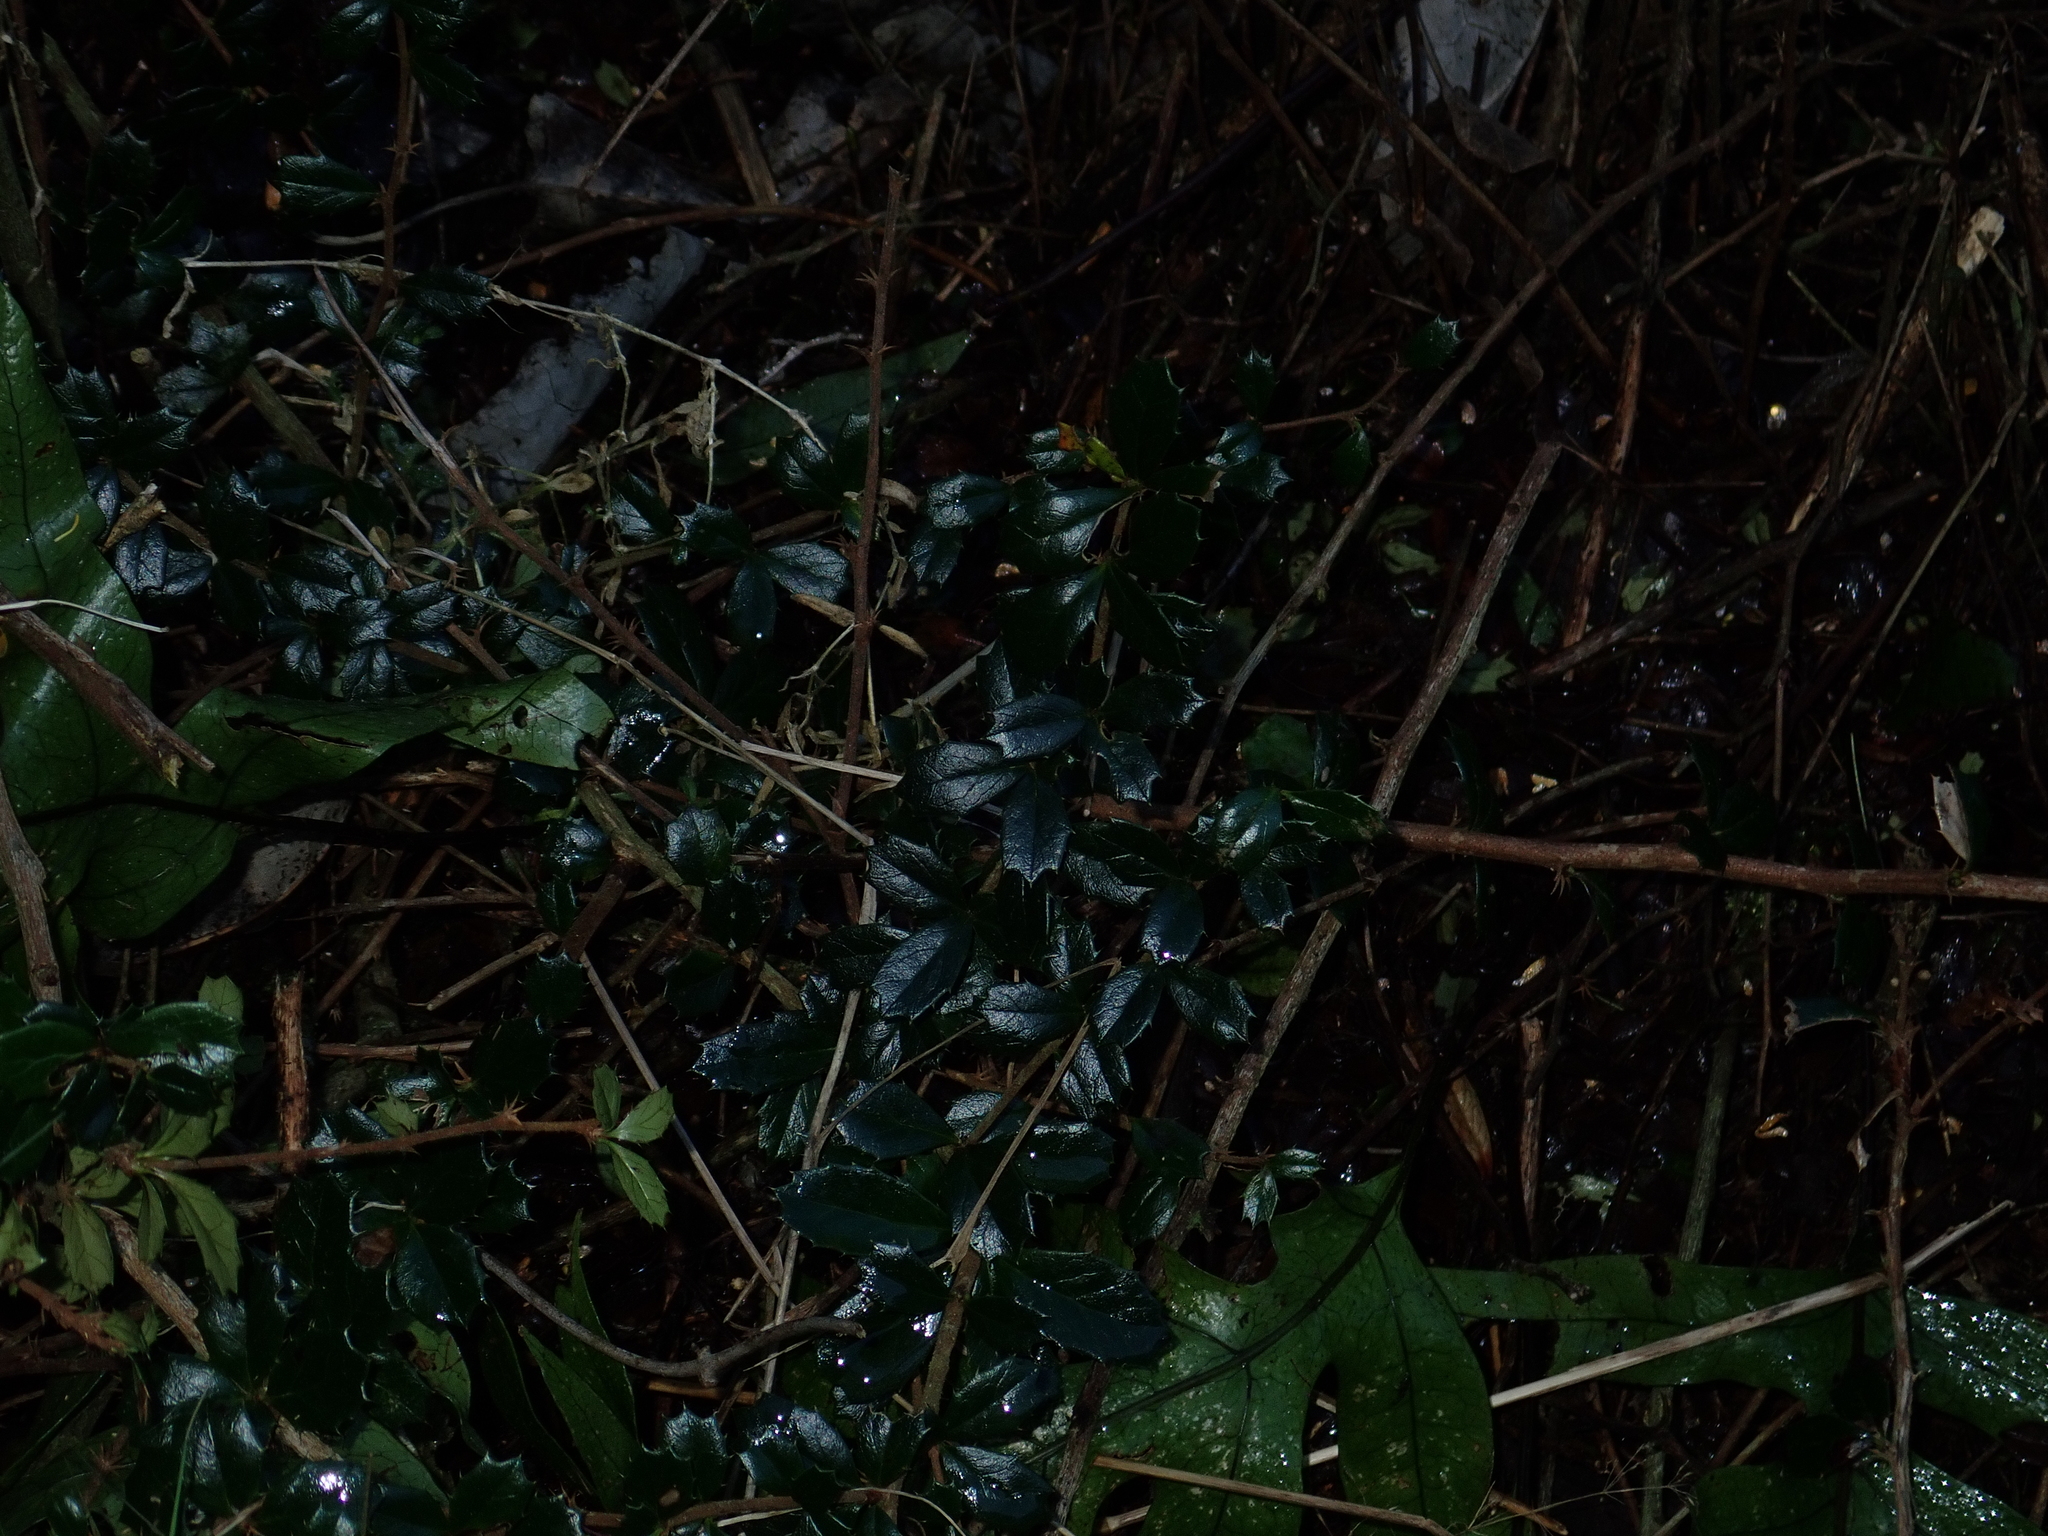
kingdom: Plantae
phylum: Tracheophyta
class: Magnoliopsida
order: Ranunculales
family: Berberidaceae
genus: Berberis
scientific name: Berberis darwinii
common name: Darwin's barberry
